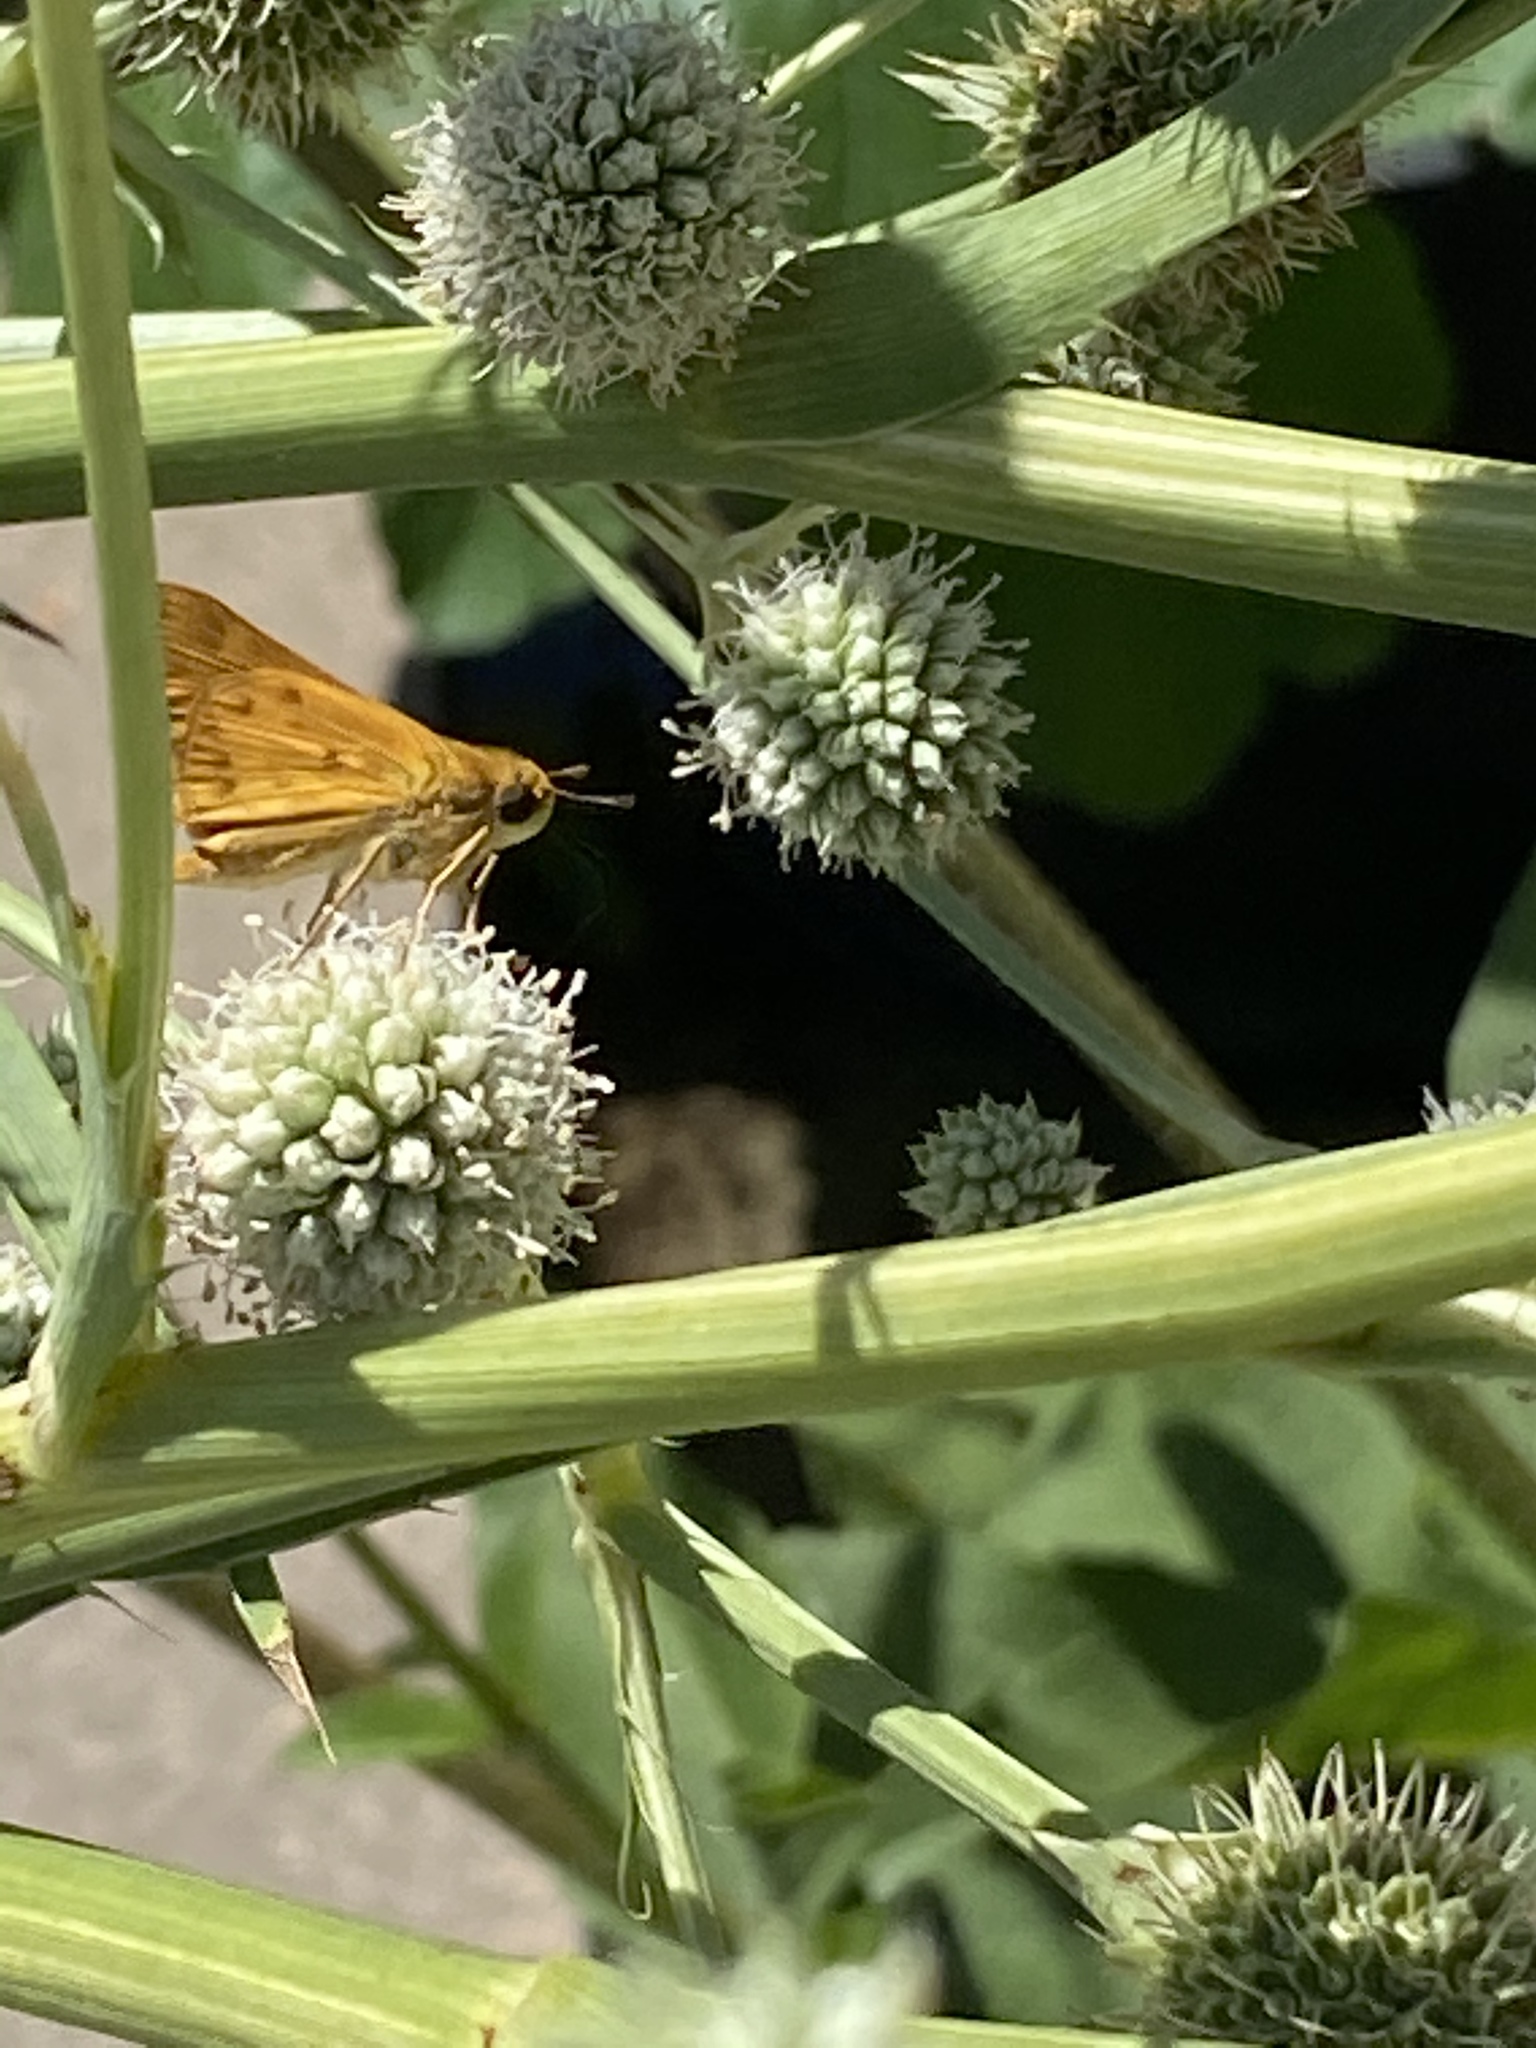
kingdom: Animalia
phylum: Arthropoda
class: Insecta
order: Lepidoptera
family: Hesperiidae
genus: Hylephila
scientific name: Hylephila phyleus
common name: Fiery skipper
